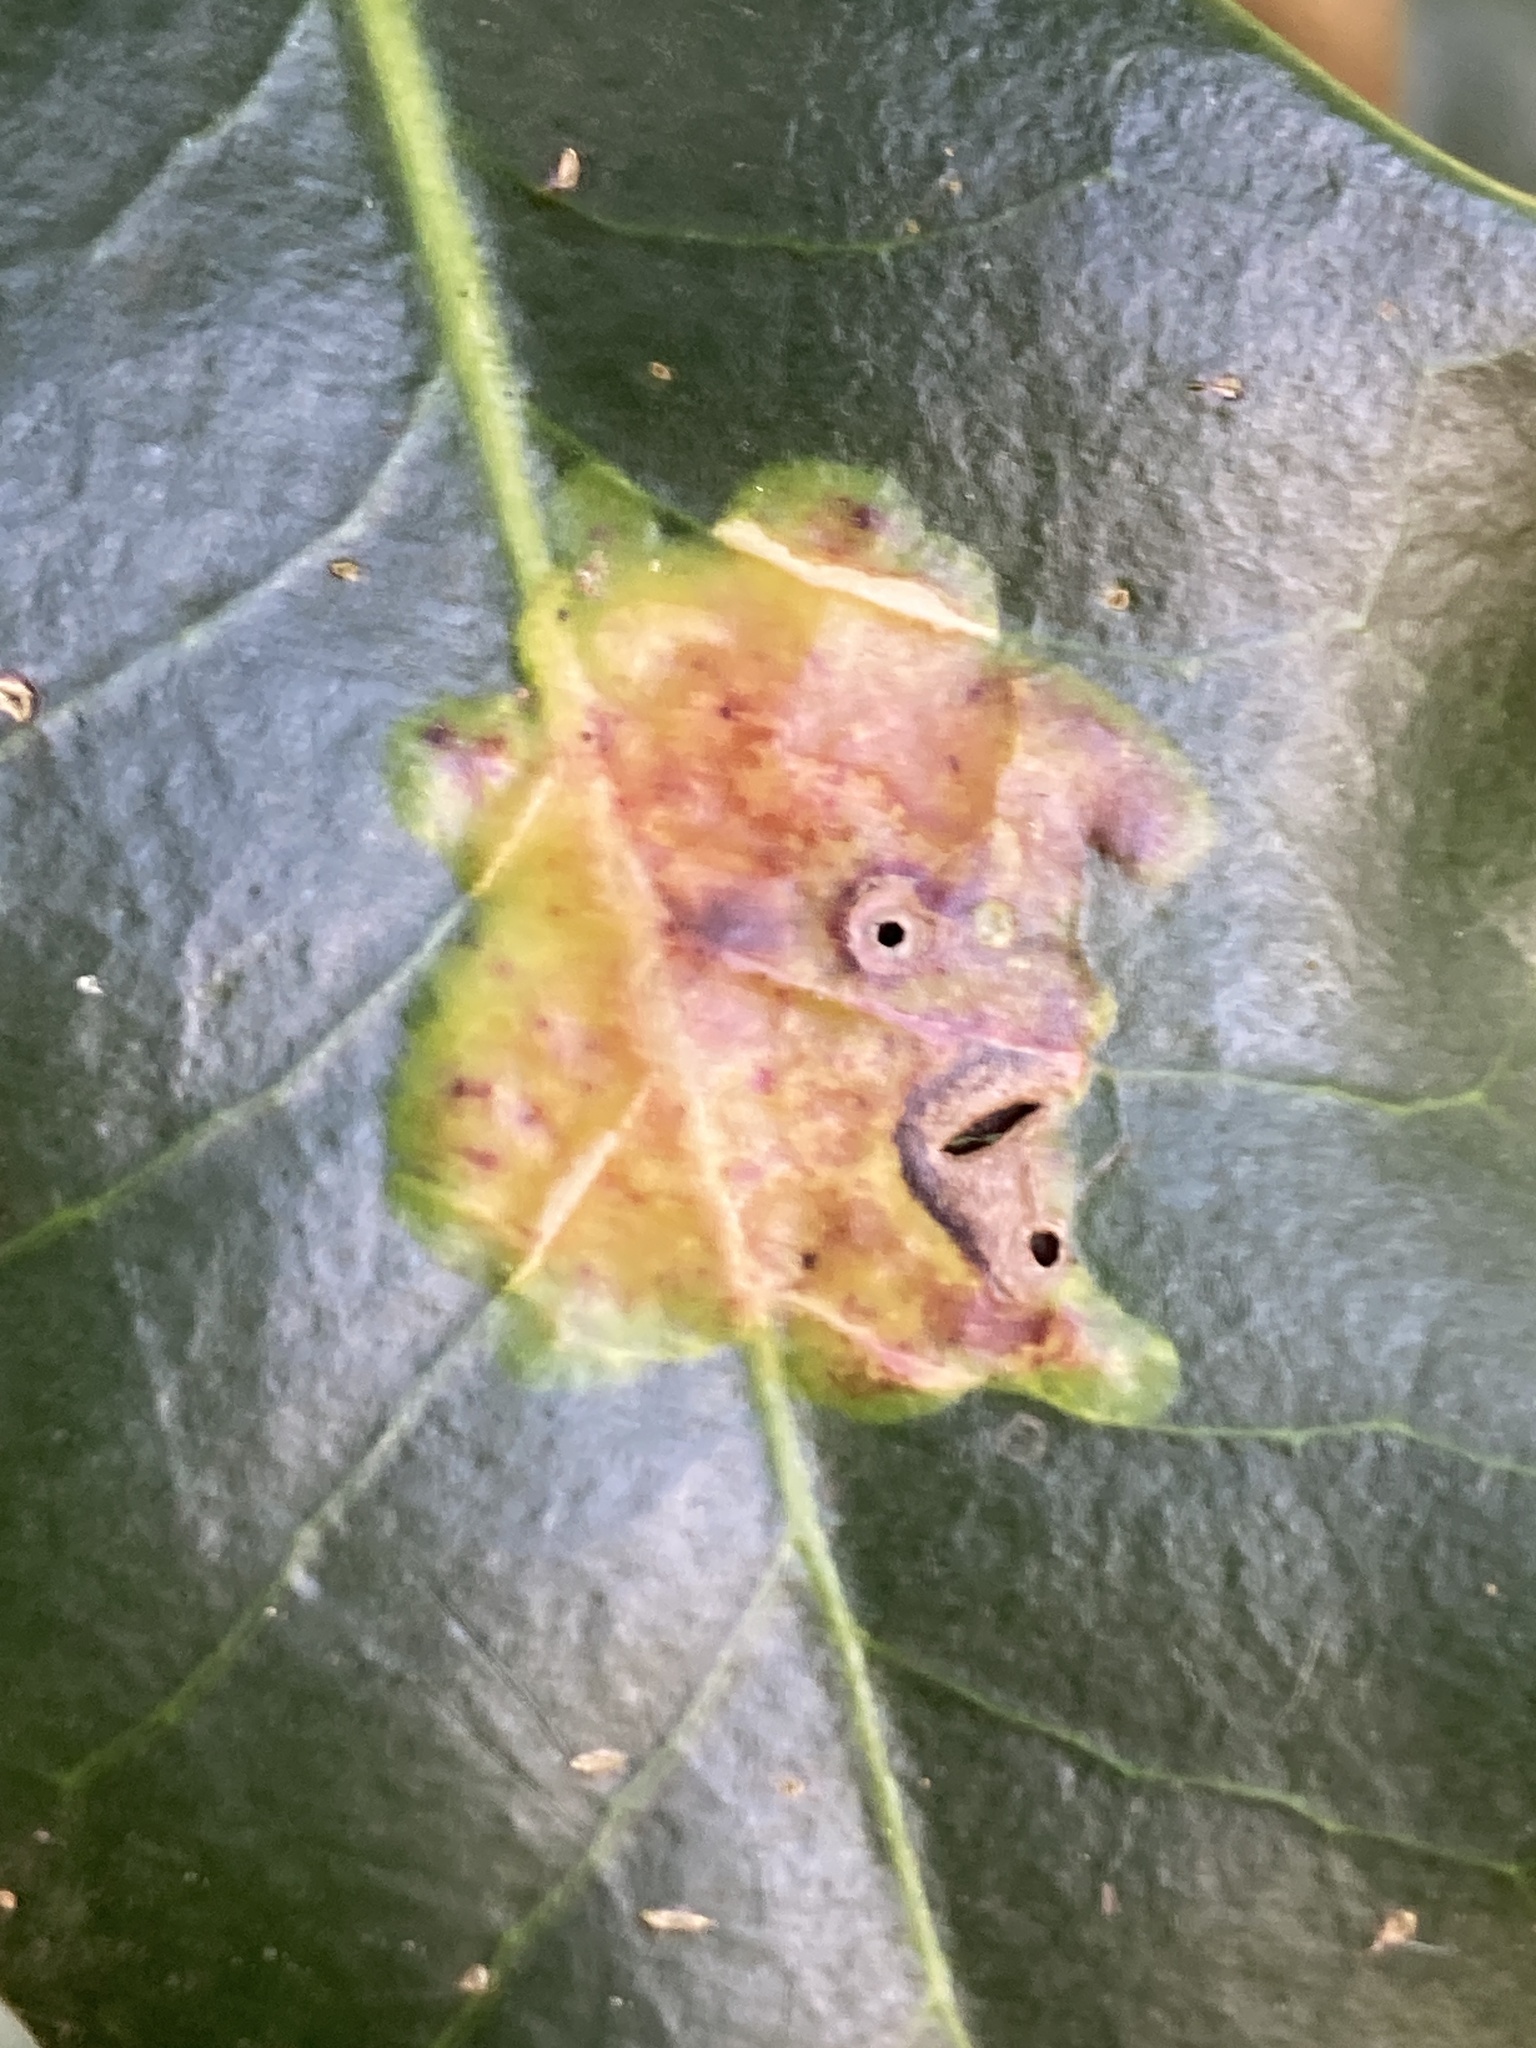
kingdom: Animalia
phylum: Arthropoda
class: Insecta
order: Diptera
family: Agromyzidae
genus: Phytomyza
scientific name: Phytomyza ilicis
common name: Holly leafminer
